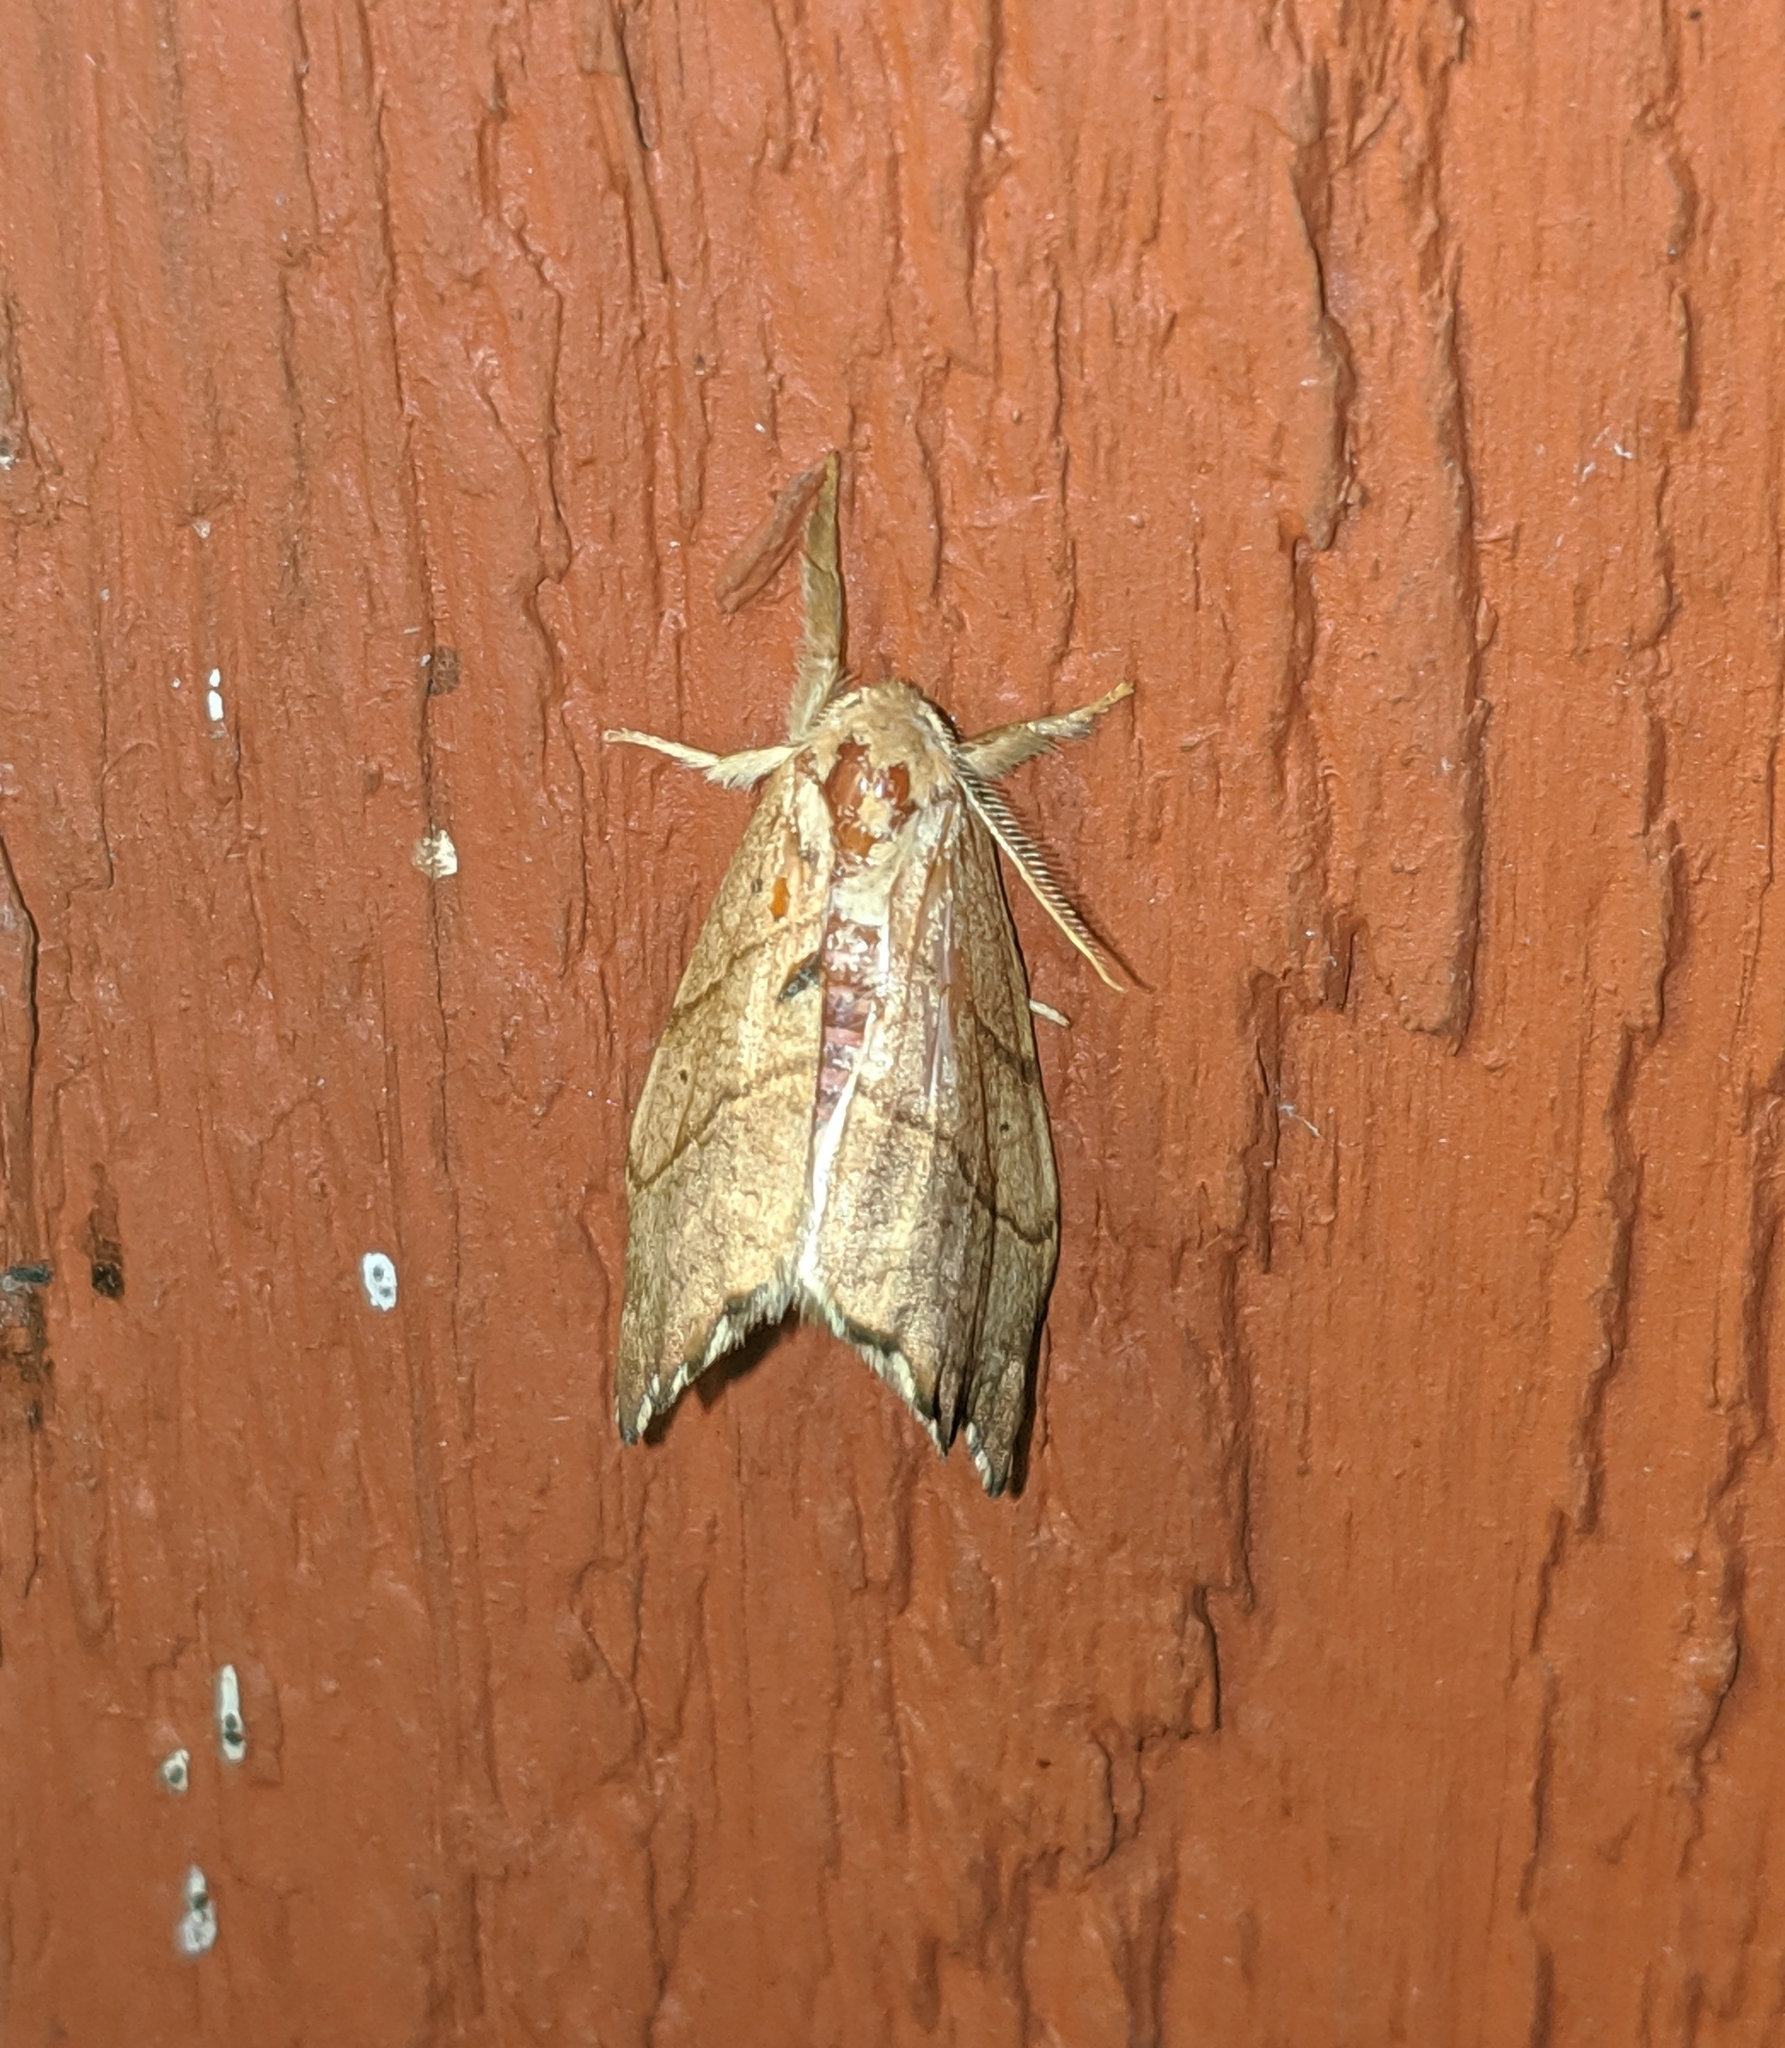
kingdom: Animalia
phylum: Arthropoda
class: Insecta
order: Lepidoptera
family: Drepanidae
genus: Falcaria
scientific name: Falcaria bilineata
